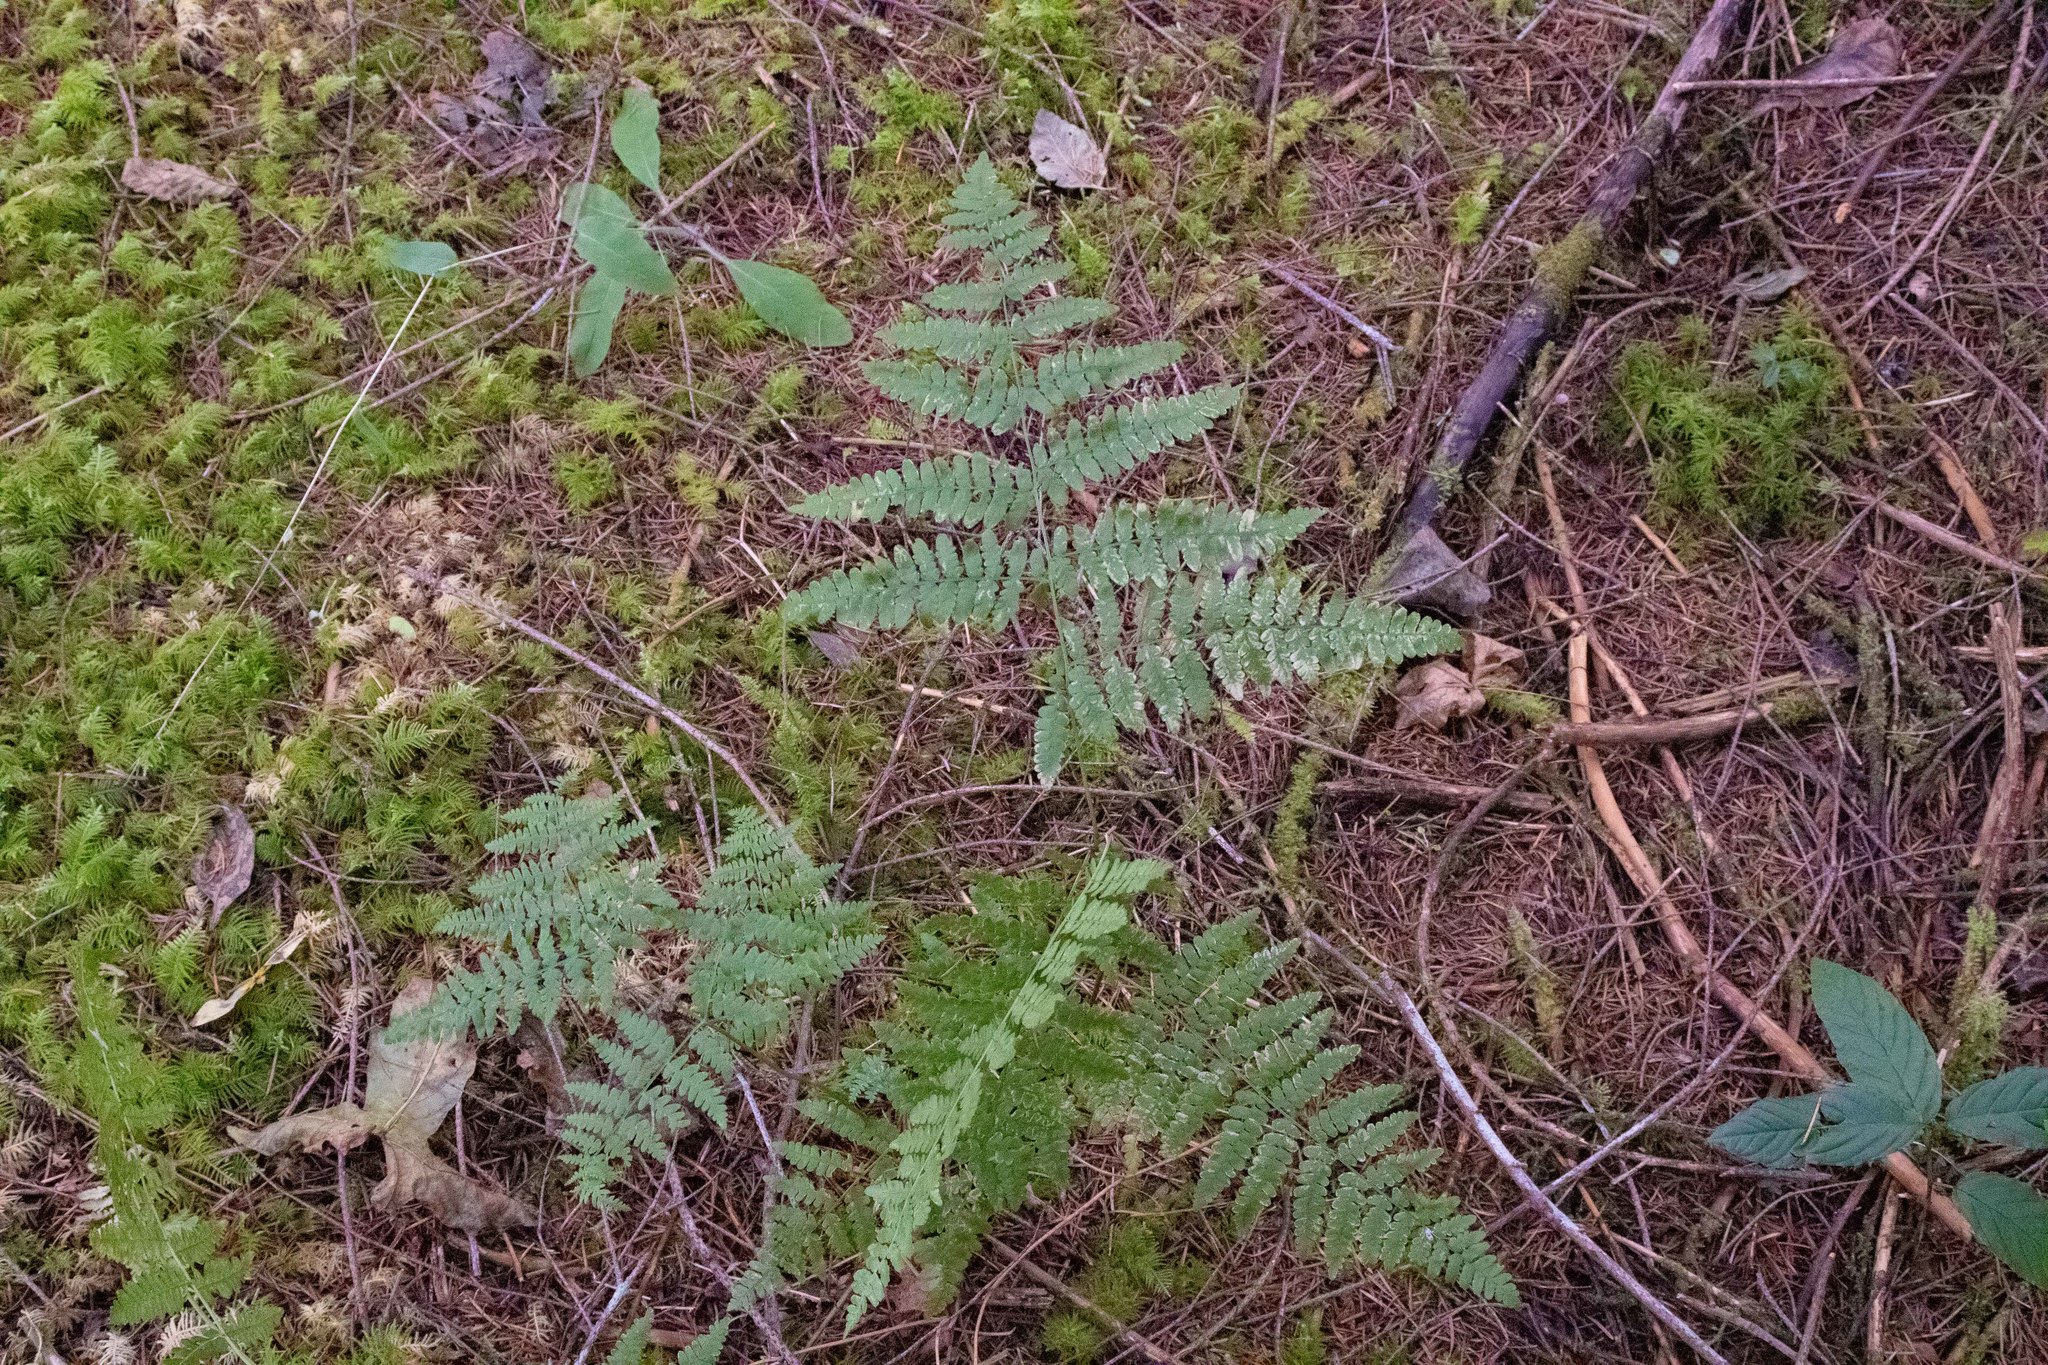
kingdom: Plantae
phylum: Tracheophyta
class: Polypodiopsida
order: Polypodiales
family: Dennstaedtiaceae
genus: Pteridium
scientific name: Pteridium aquilinum
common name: Bracken
